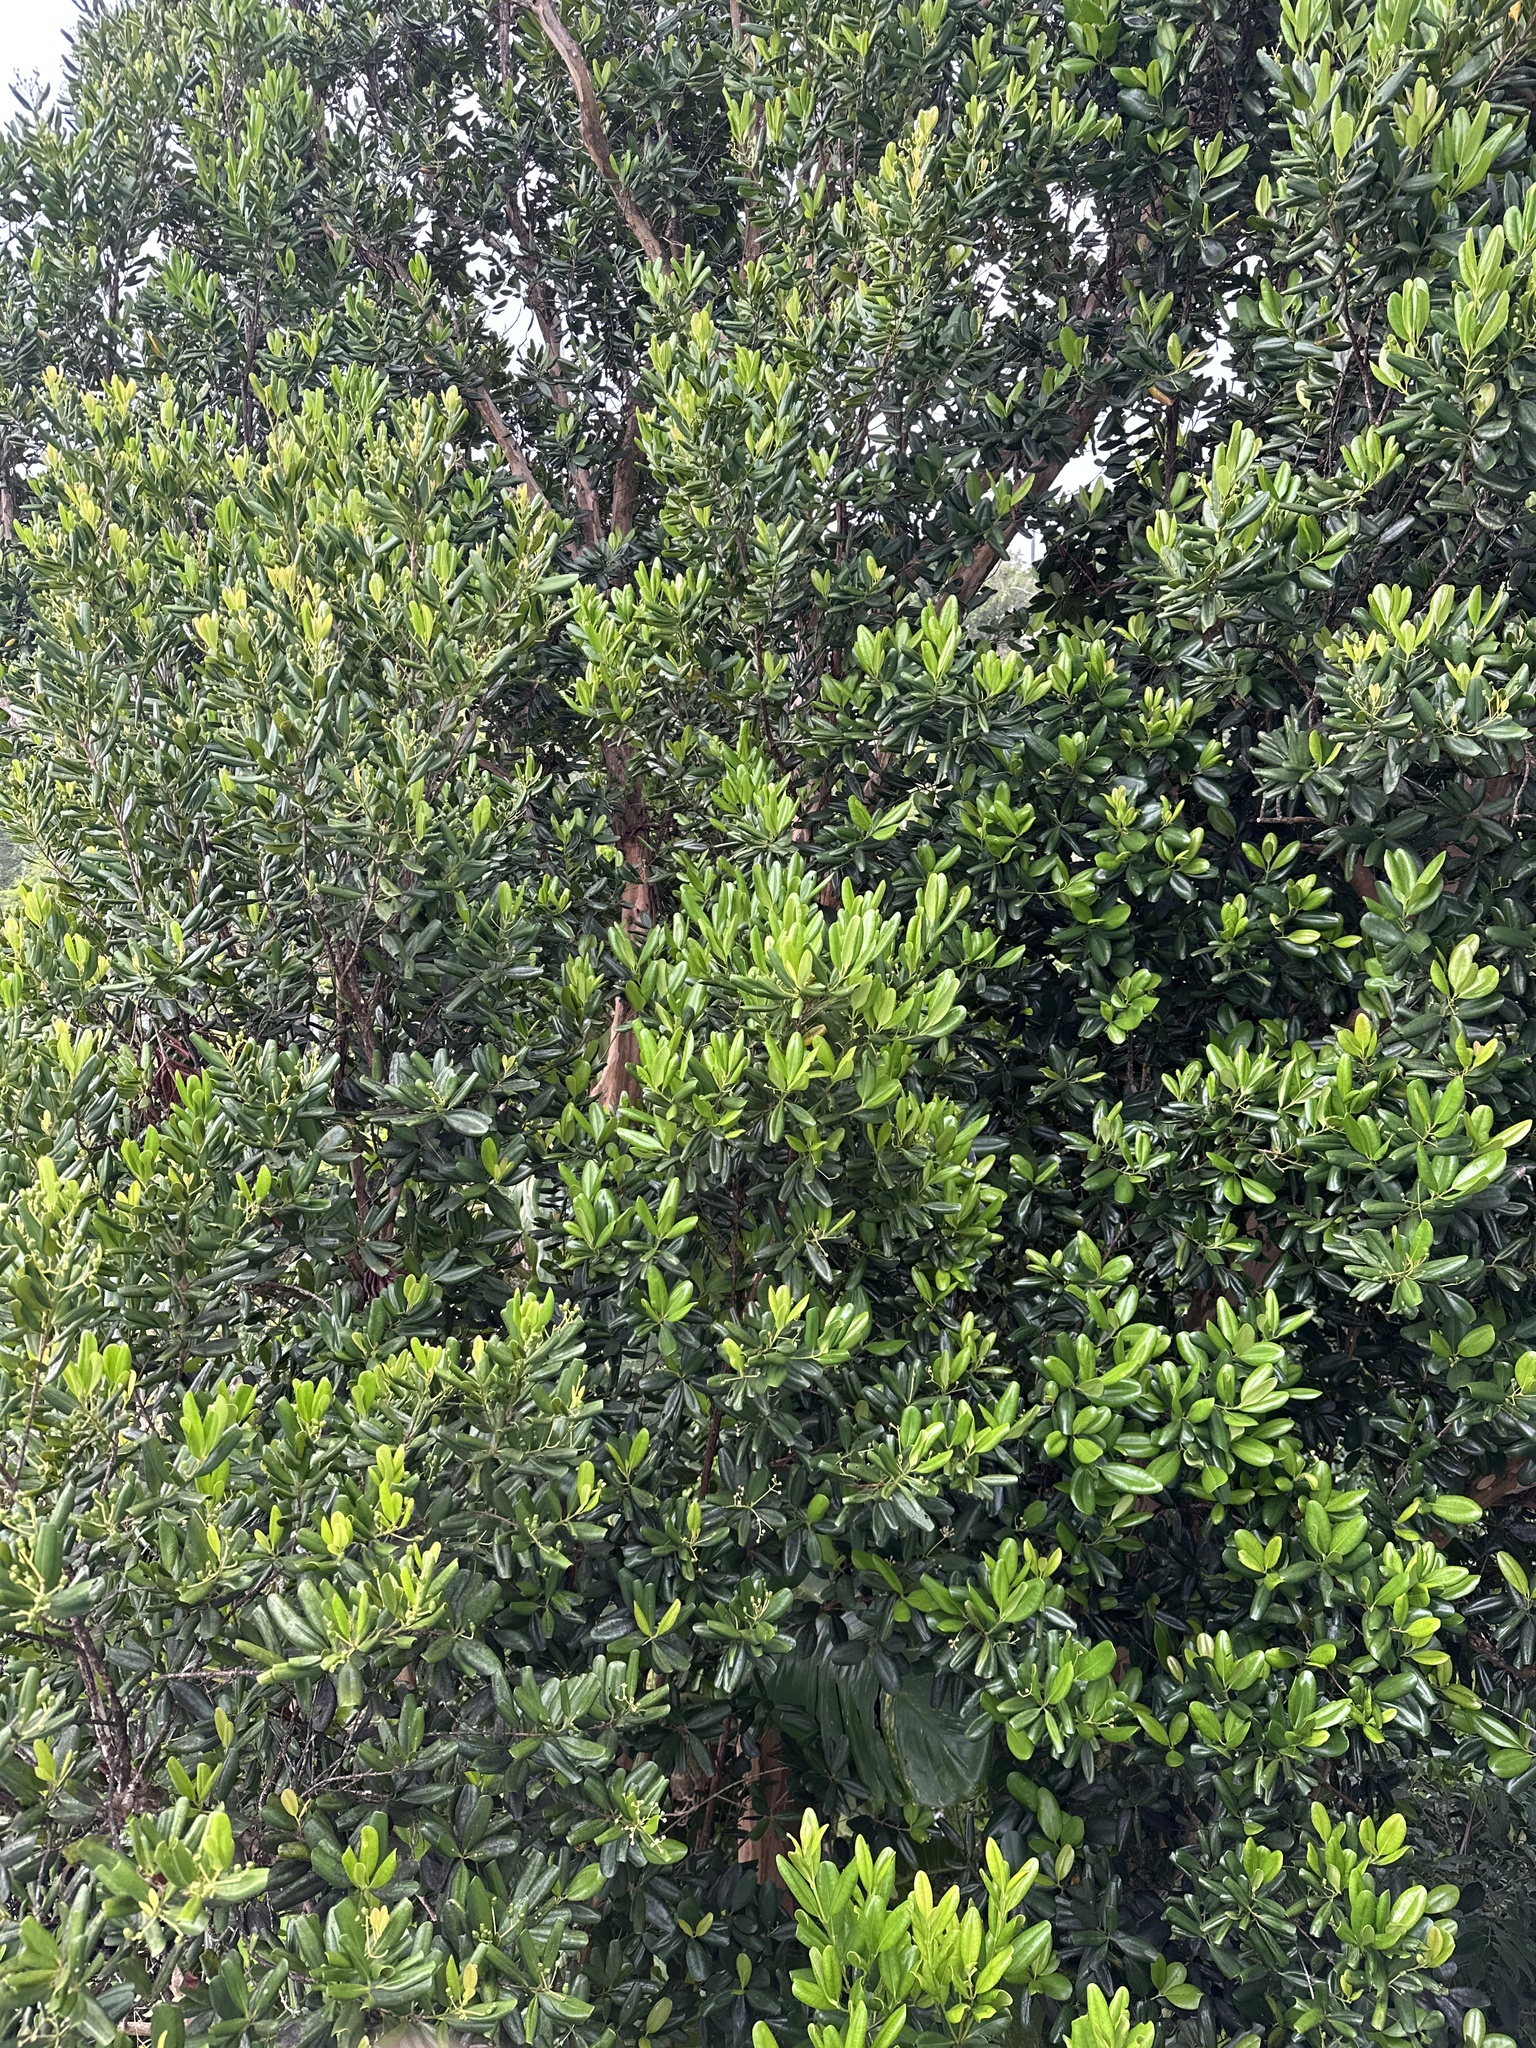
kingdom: Plantae
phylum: Tracheophyta
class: Magnoliopsida
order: Myrtales
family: Myrtaceae
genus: Pimenta
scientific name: Pimenta racemosa
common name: Bay rum tree
